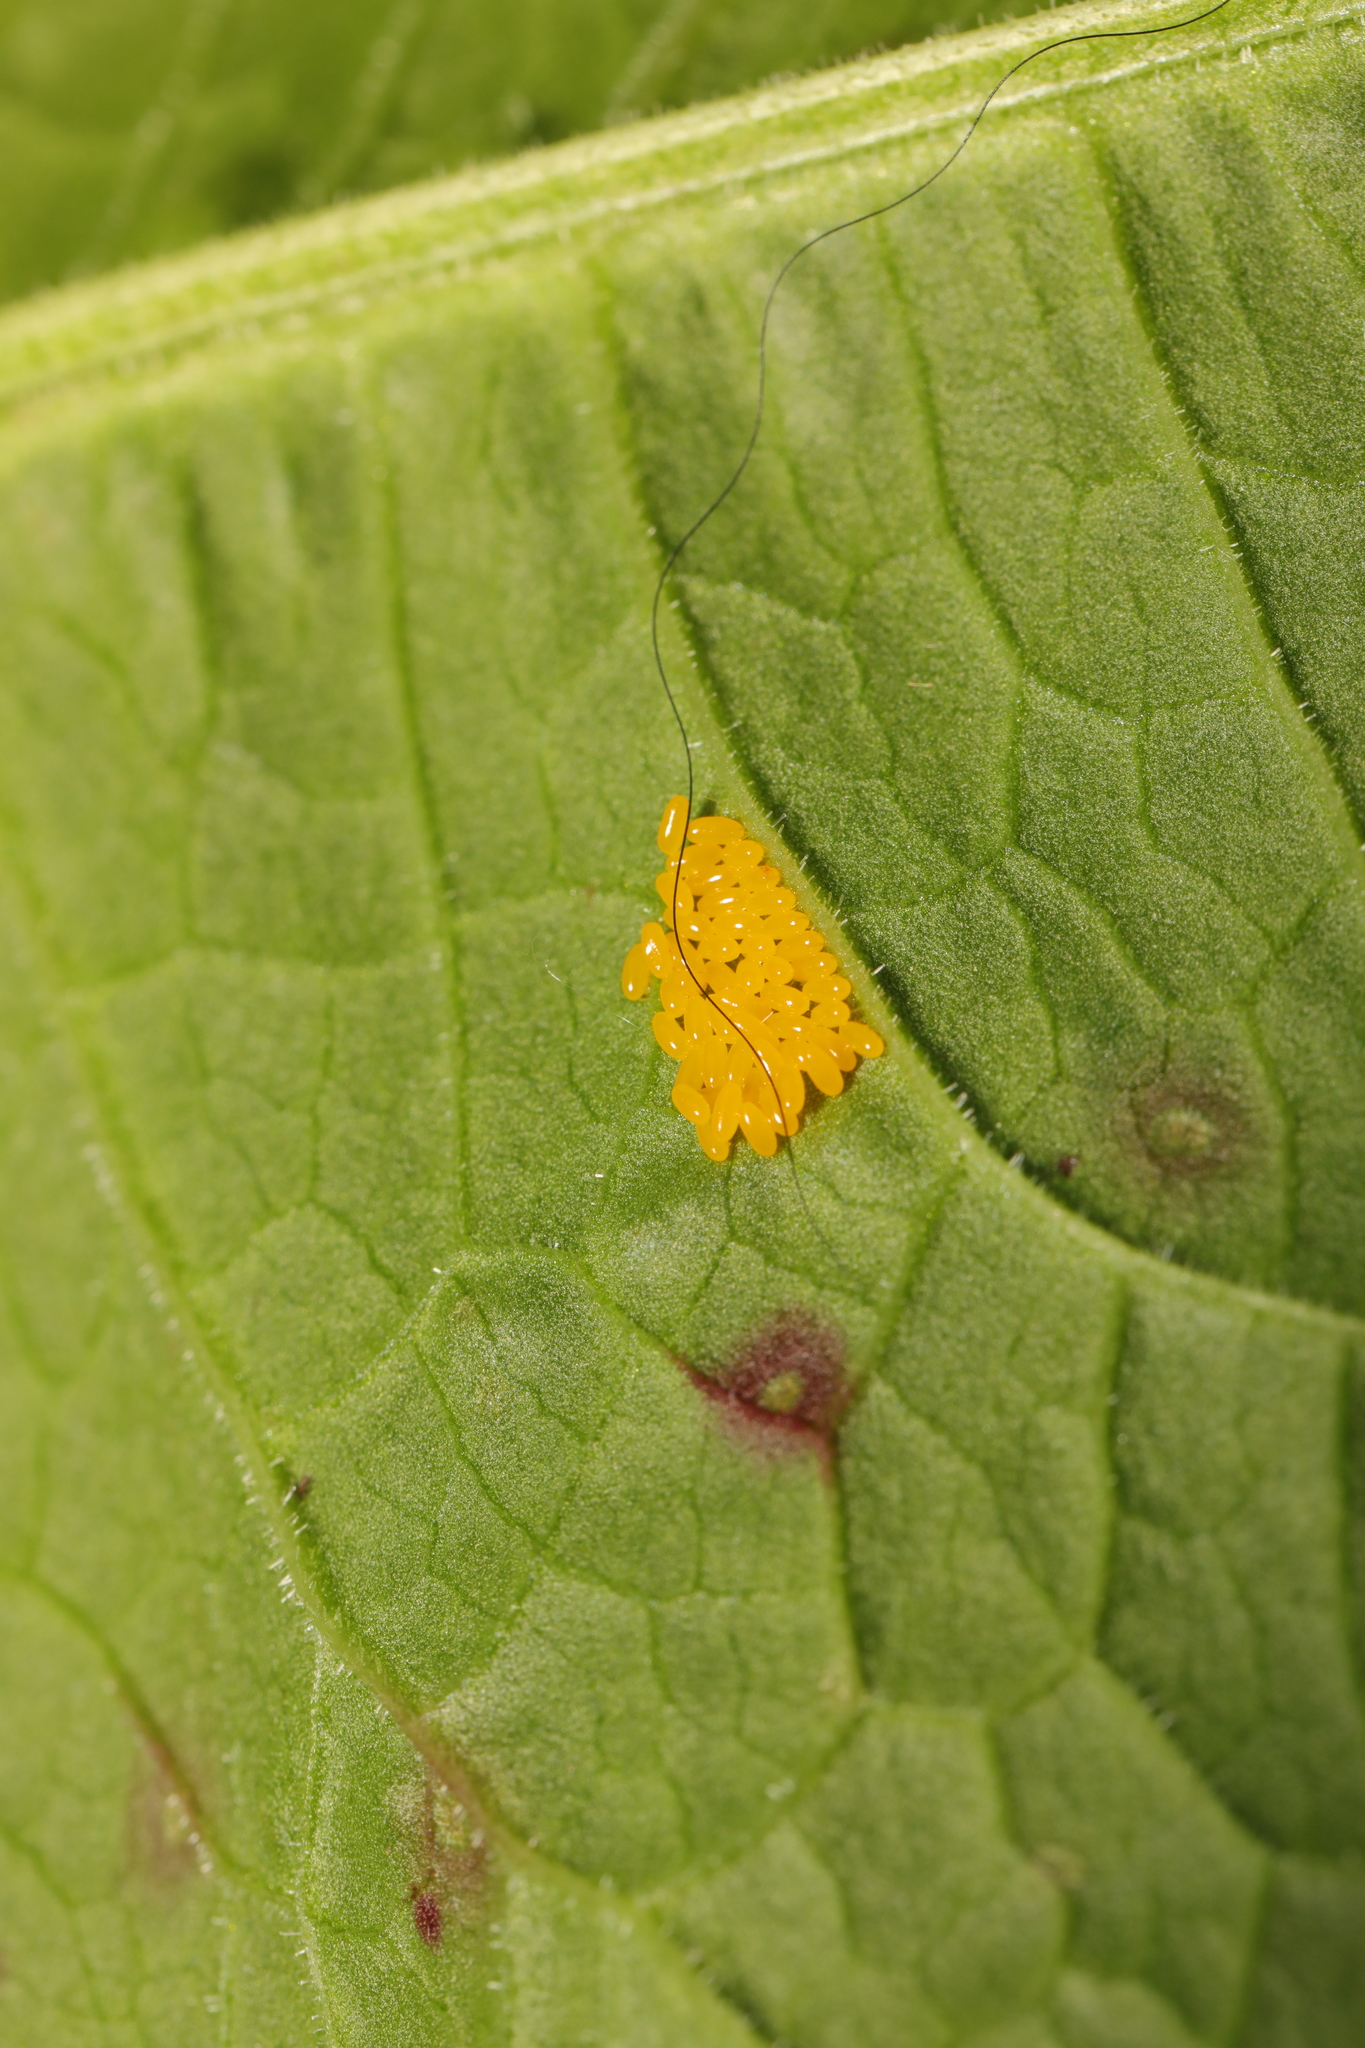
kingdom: Animalia
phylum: Arthropoda
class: Insecta
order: Coleoptera
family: Chrysomelidae
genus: Gastrophysa
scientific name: Gastrophysa viridula
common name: Green dock beetle
